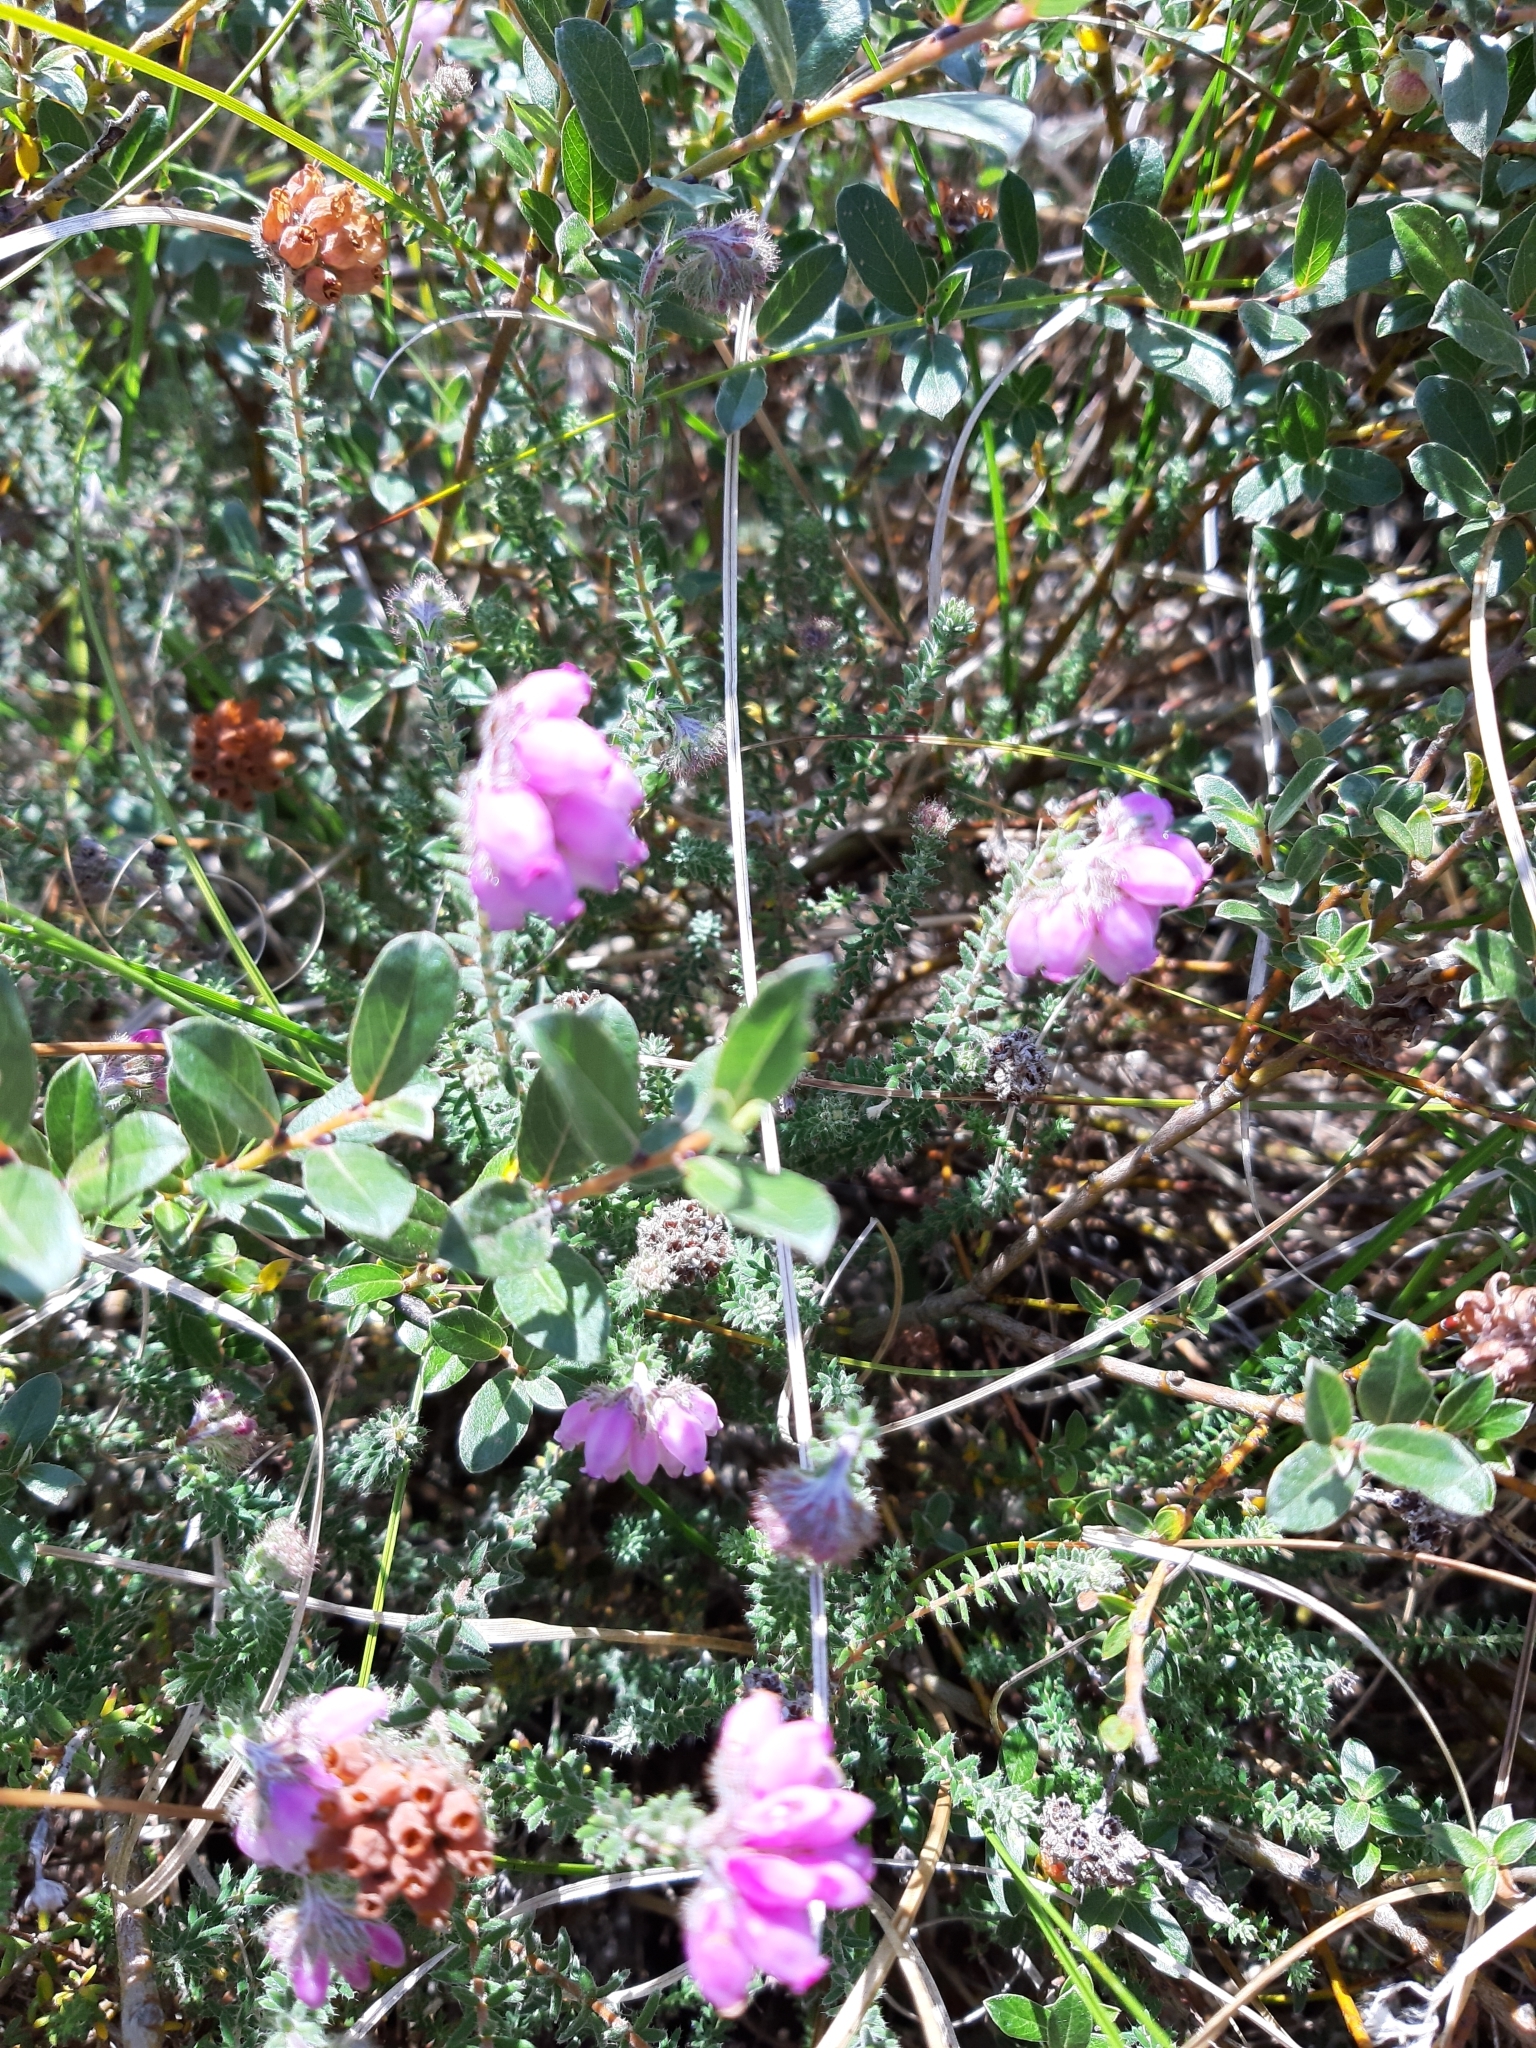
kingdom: Plantae
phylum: Tracheophyta
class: Magnoliopsida
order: Ericales
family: Ericaceae
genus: Erica
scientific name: Erica tetralix
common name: Cross-leaved heath
